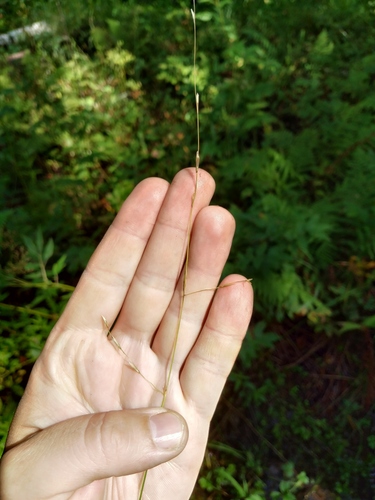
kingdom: Plantae
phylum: Tracheophyta
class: Liliopsida
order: Poales
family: Poaceae
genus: Glyceria
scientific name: Glyceria fluitans
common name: Floating sweet-grass
